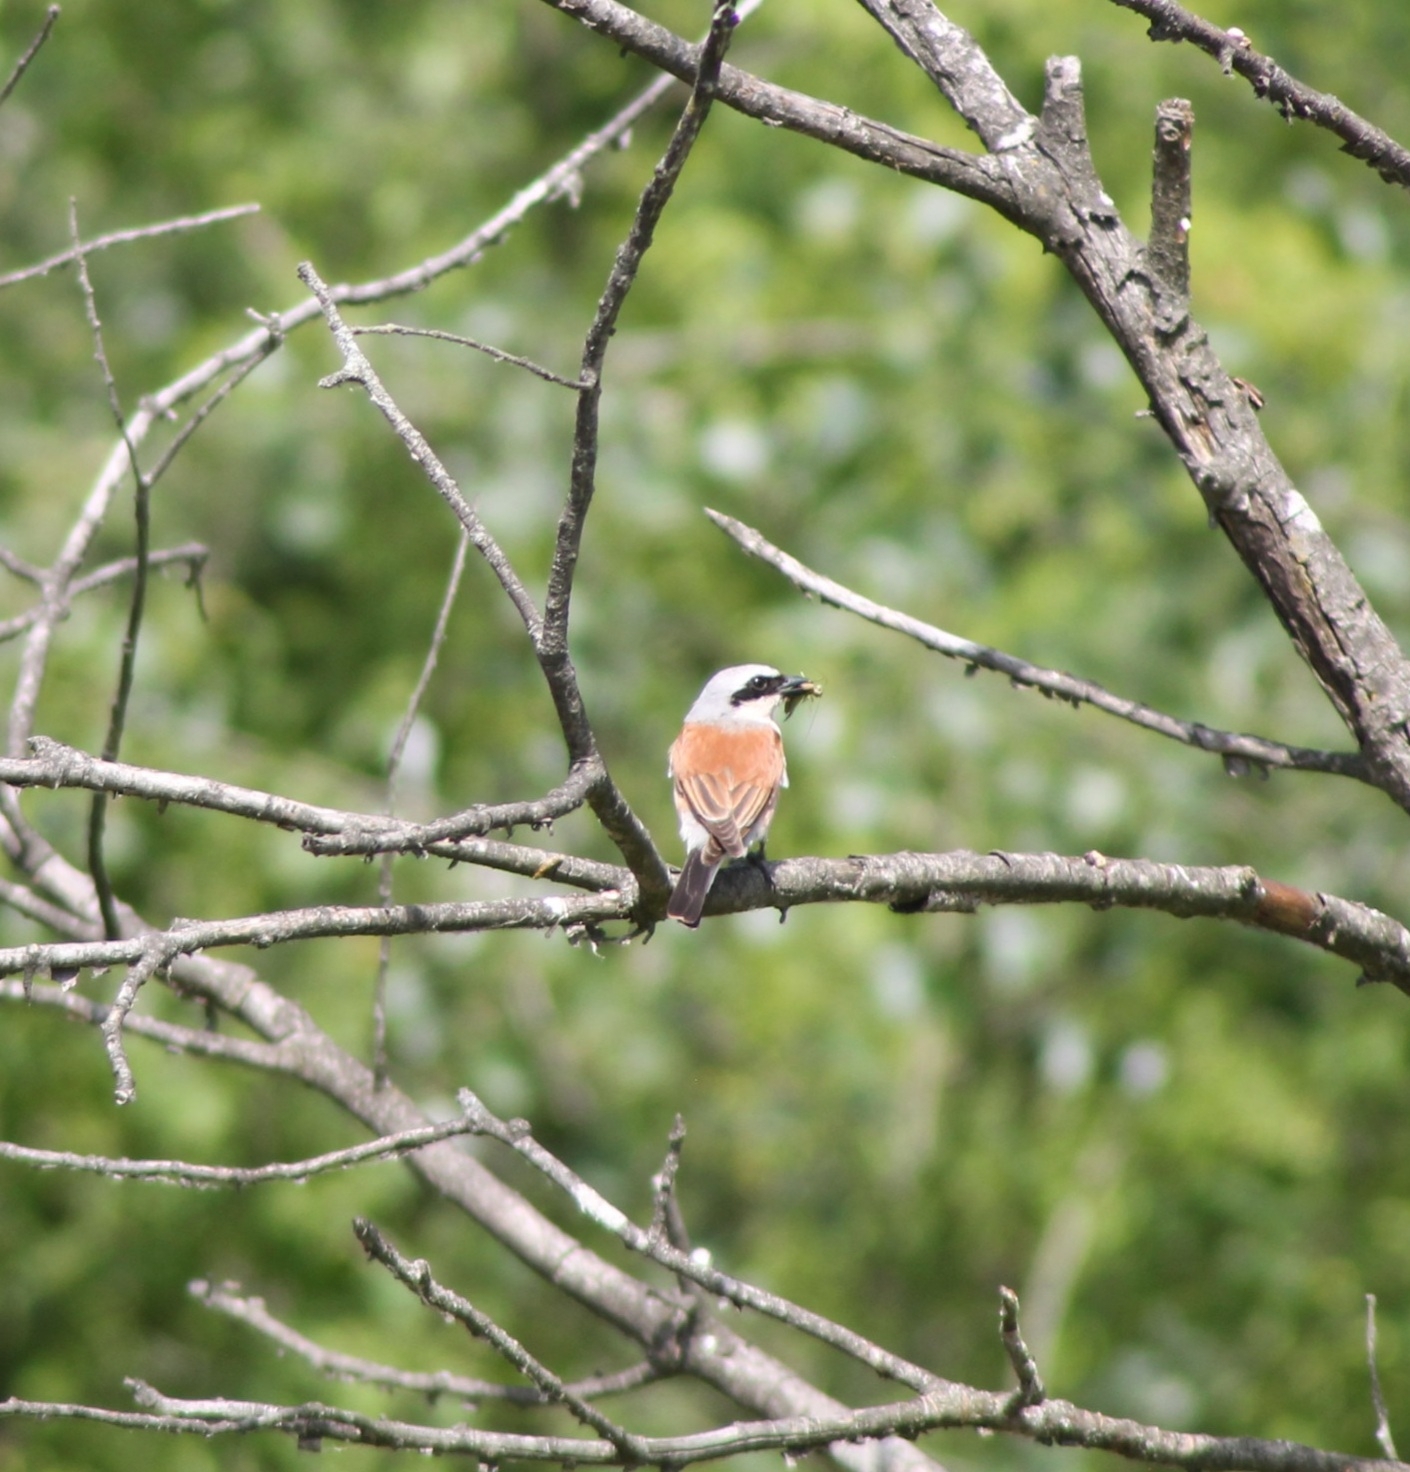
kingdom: Animalia
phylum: Chordata
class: Aves
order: Passeriformes
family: Laniidae
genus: Lanius
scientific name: Lanius collurio
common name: Red-backed shrike
